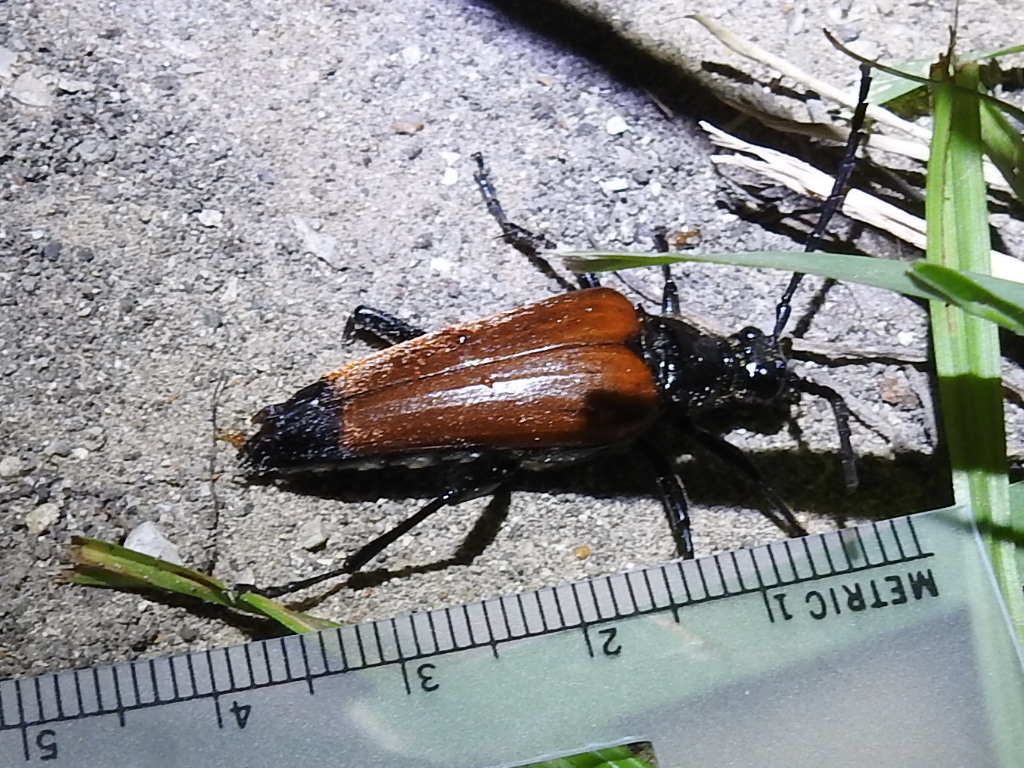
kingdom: Animalia
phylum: Arthropoda
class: Insecta
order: Coleoptera
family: Cerambycidae
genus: Stenelytrana
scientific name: Stenelytrana gigas
